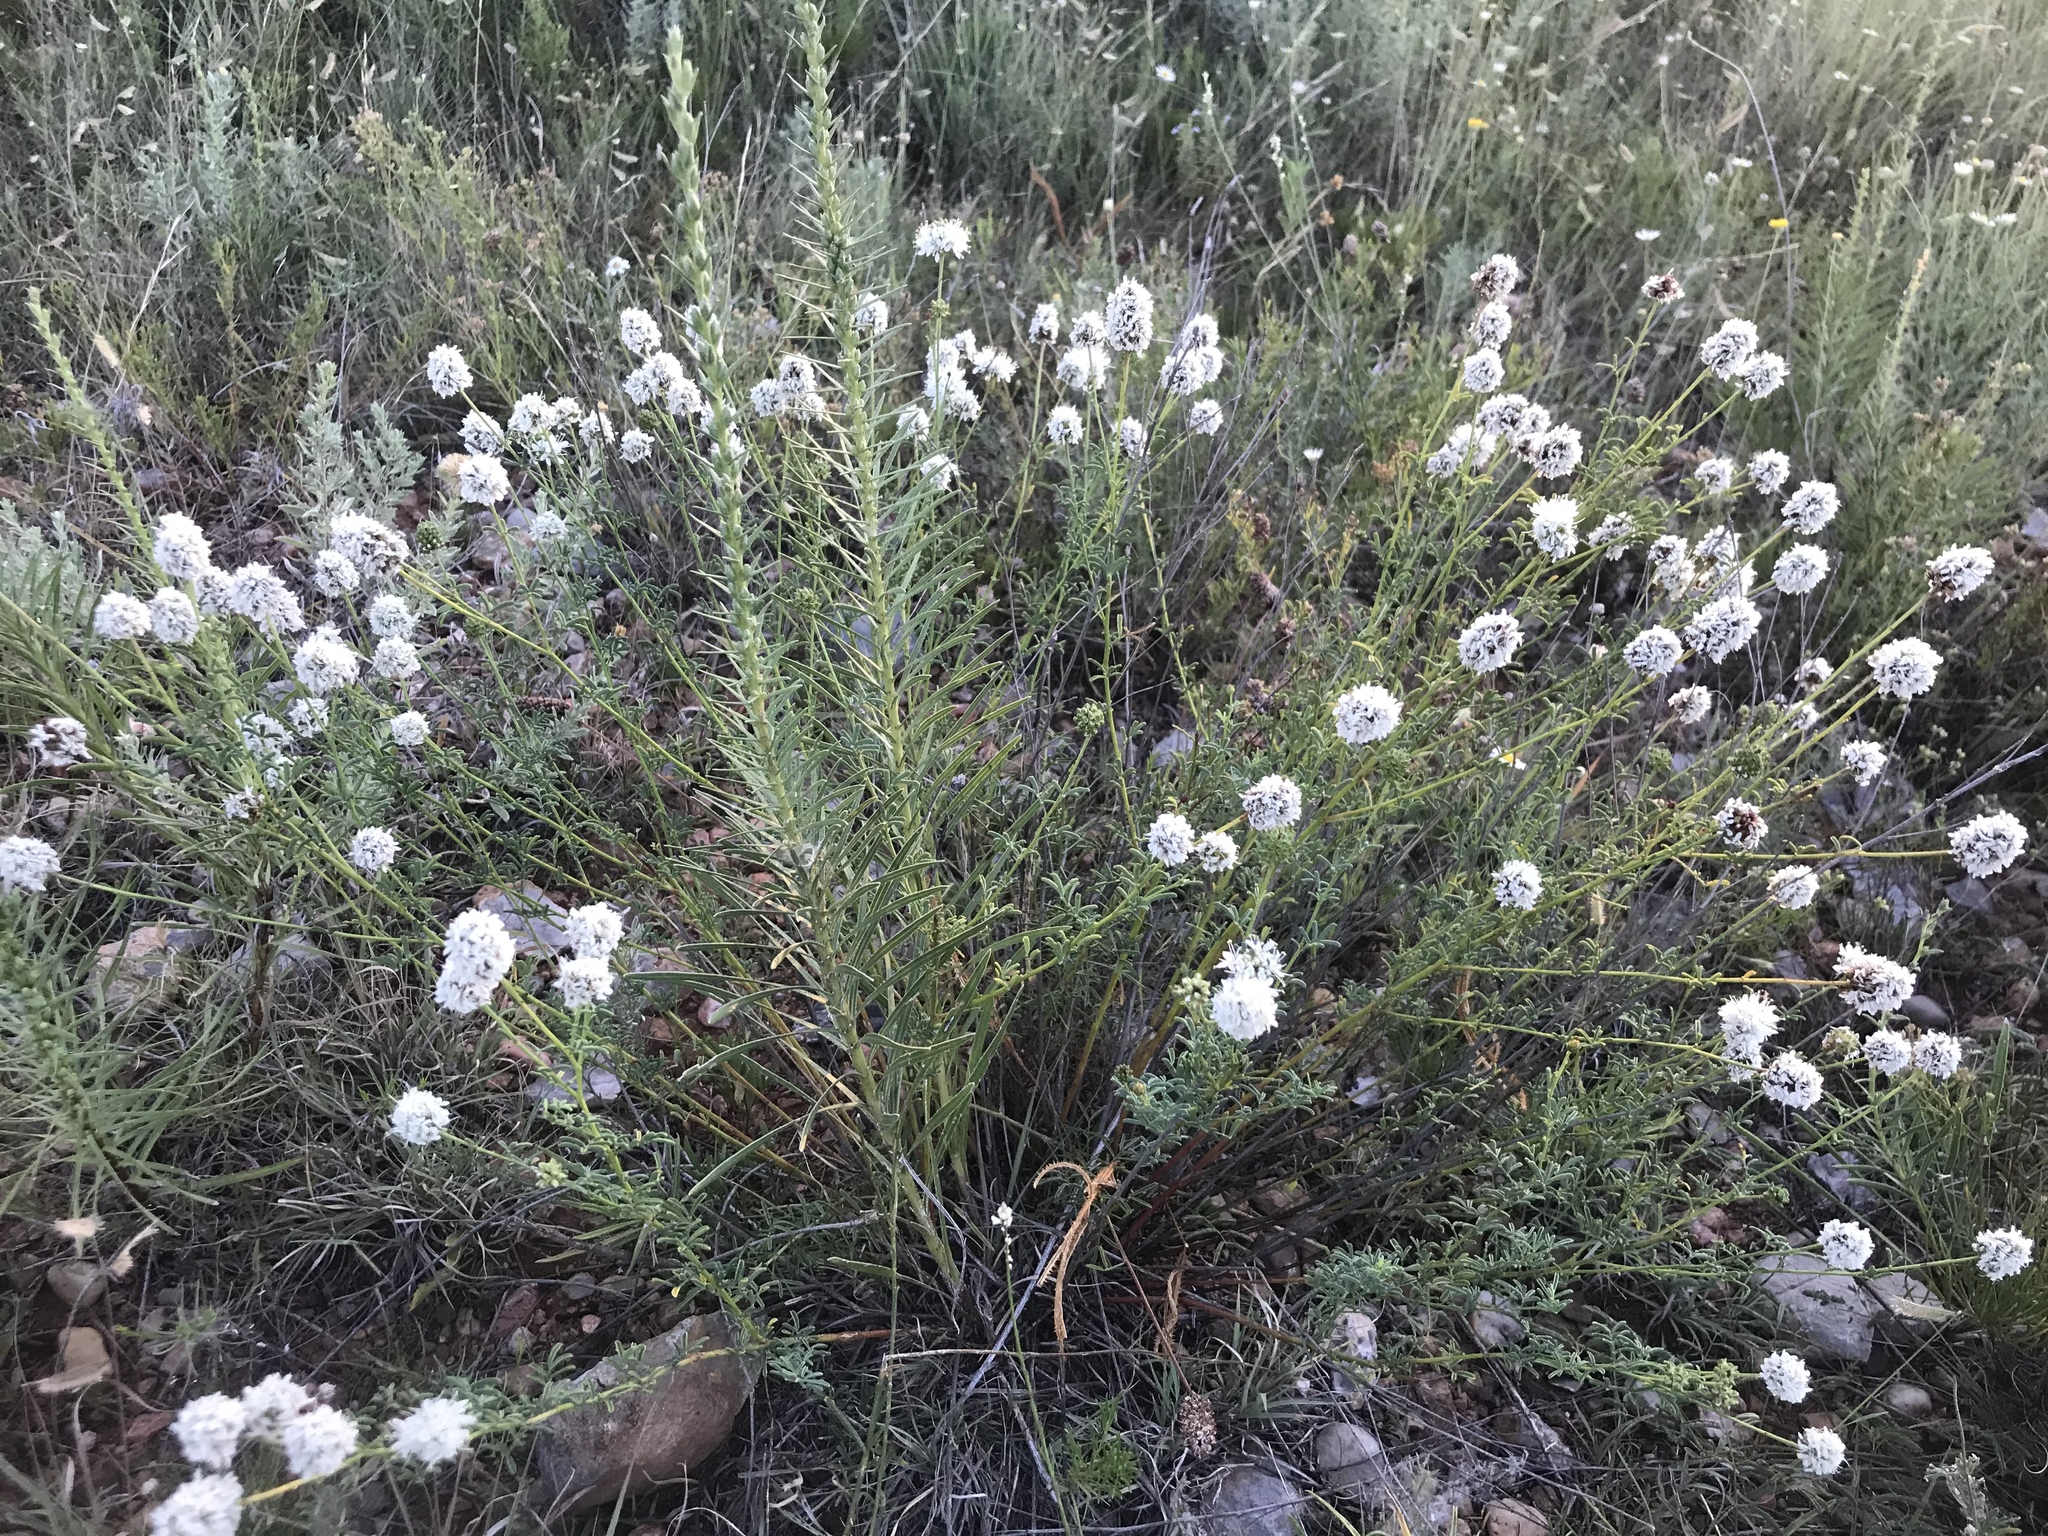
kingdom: Plantae
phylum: Tracheophyta
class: Magnoliopsida
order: Fabales
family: Fabaceae
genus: Dalea
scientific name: Dalea multiflora
